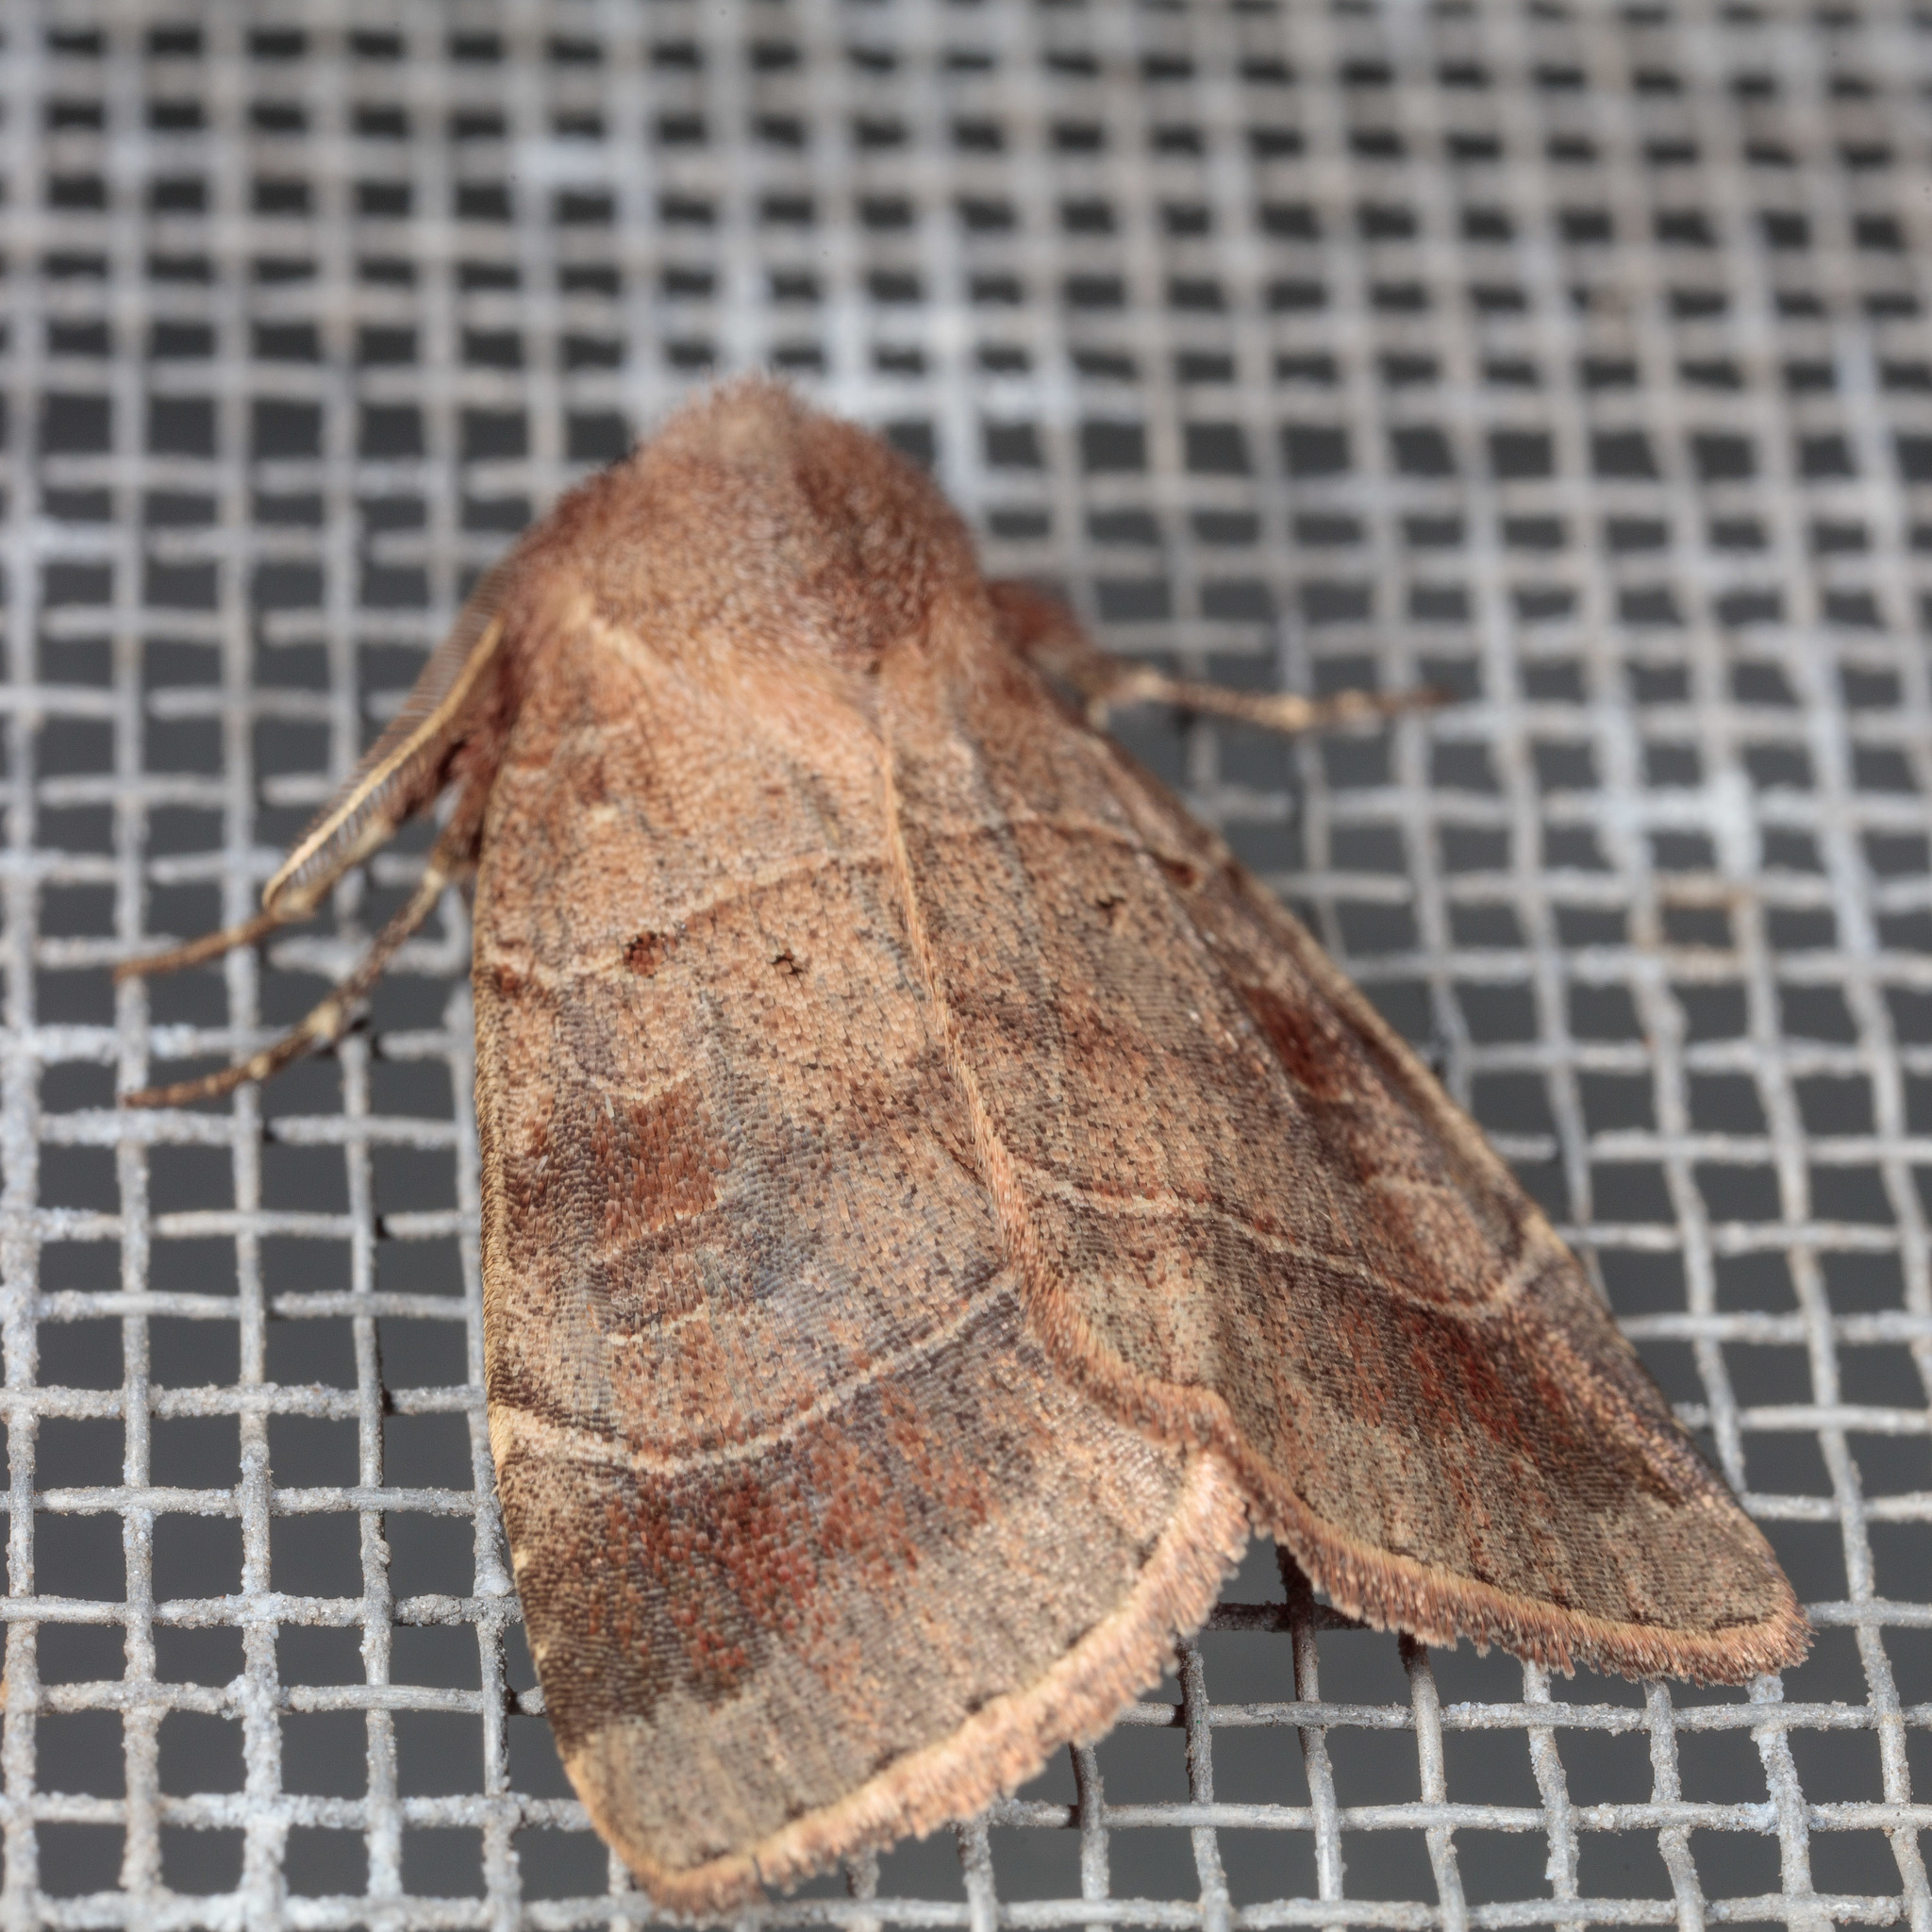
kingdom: Animalia
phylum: Arthropoda
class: Insecta
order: Lepidoptera
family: Noctuidae
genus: Agnorisma
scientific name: Agnorisma badinodis
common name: Pale-banded dart
